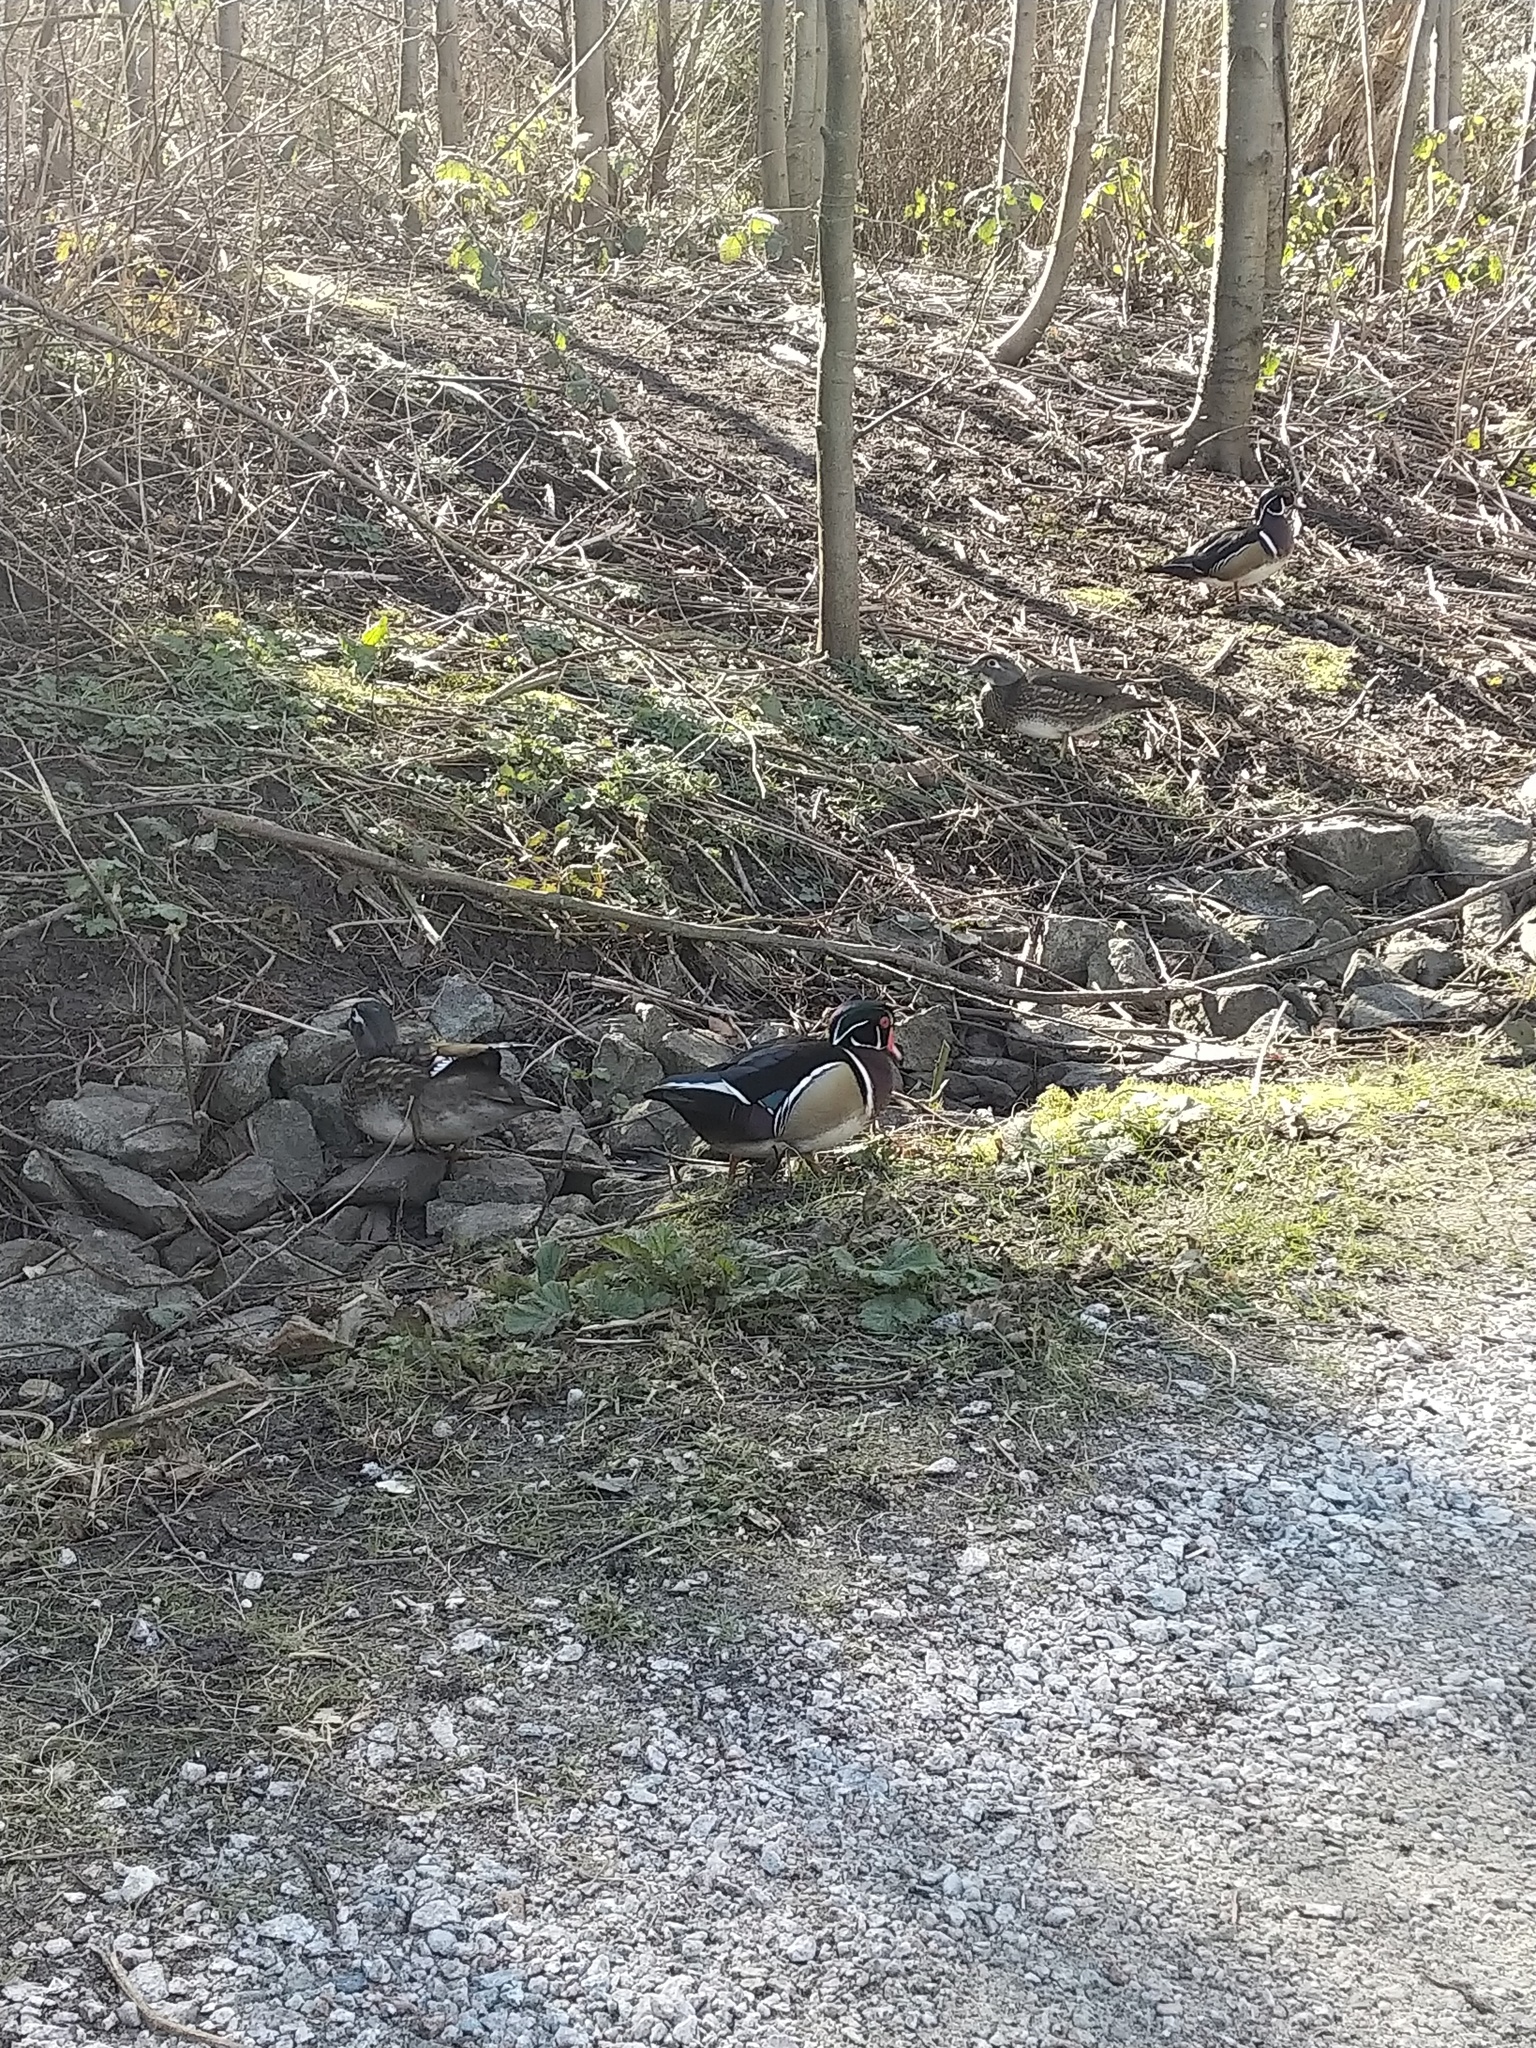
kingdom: Animalia
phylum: Chordata
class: Aves
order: Anseriformes
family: Anatidae
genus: Aix
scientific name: Aix sponsa
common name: Wood duck
